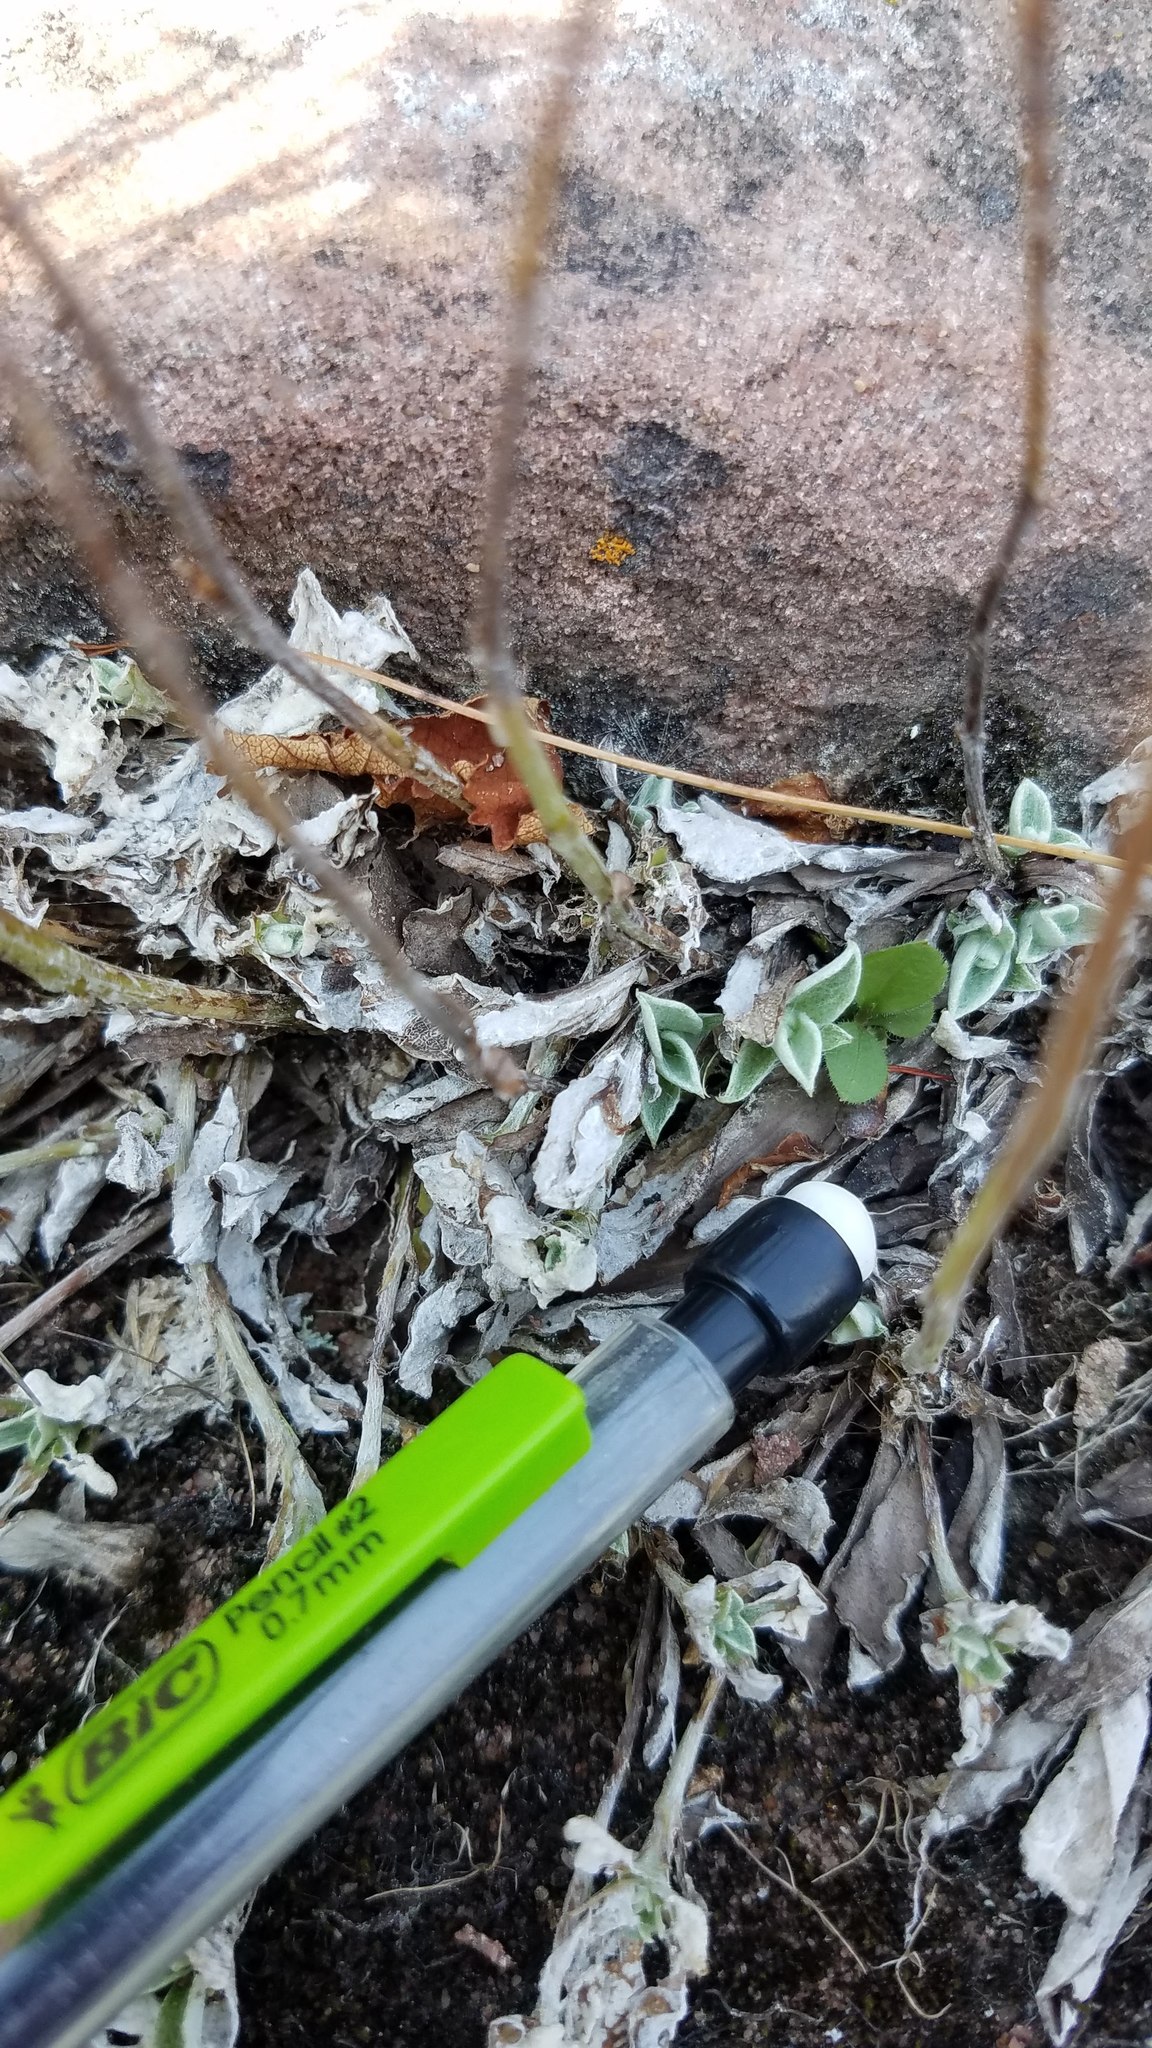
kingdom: Plantae
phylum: Tracheophyta
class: Magnoliopsida
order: Asterales
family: Asteraceae
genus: Antennaria
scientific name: Antennaria howellii
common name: Howell's pussytoes
